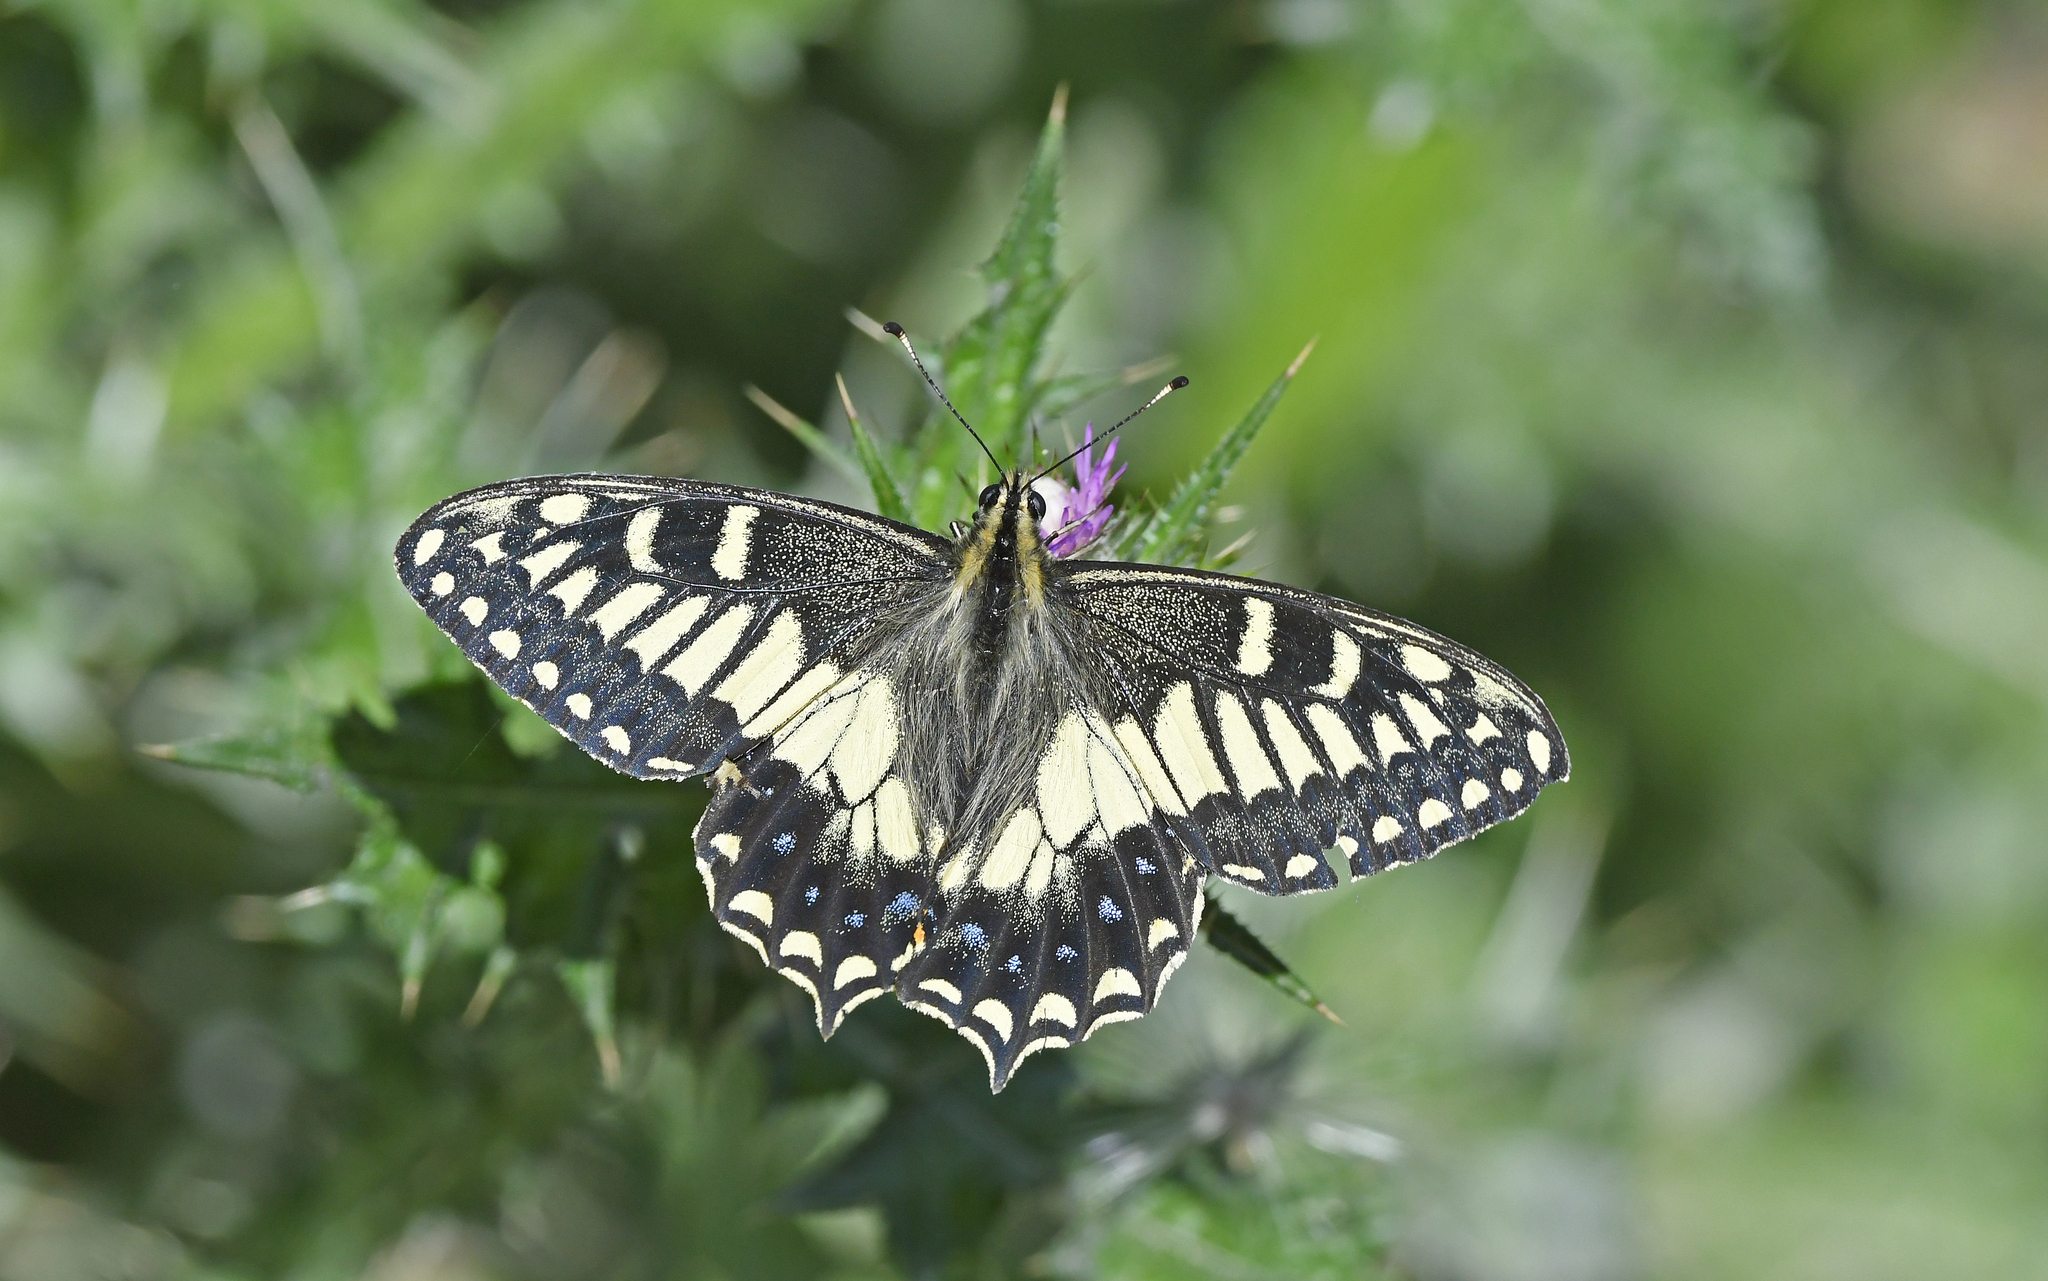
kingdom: Animalia
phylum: Arthropoda
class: Insecta
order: Lepidoptera
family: Papilionidae
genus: Papilio
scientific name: Papilio hospiton
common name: Corsican swallowtail
